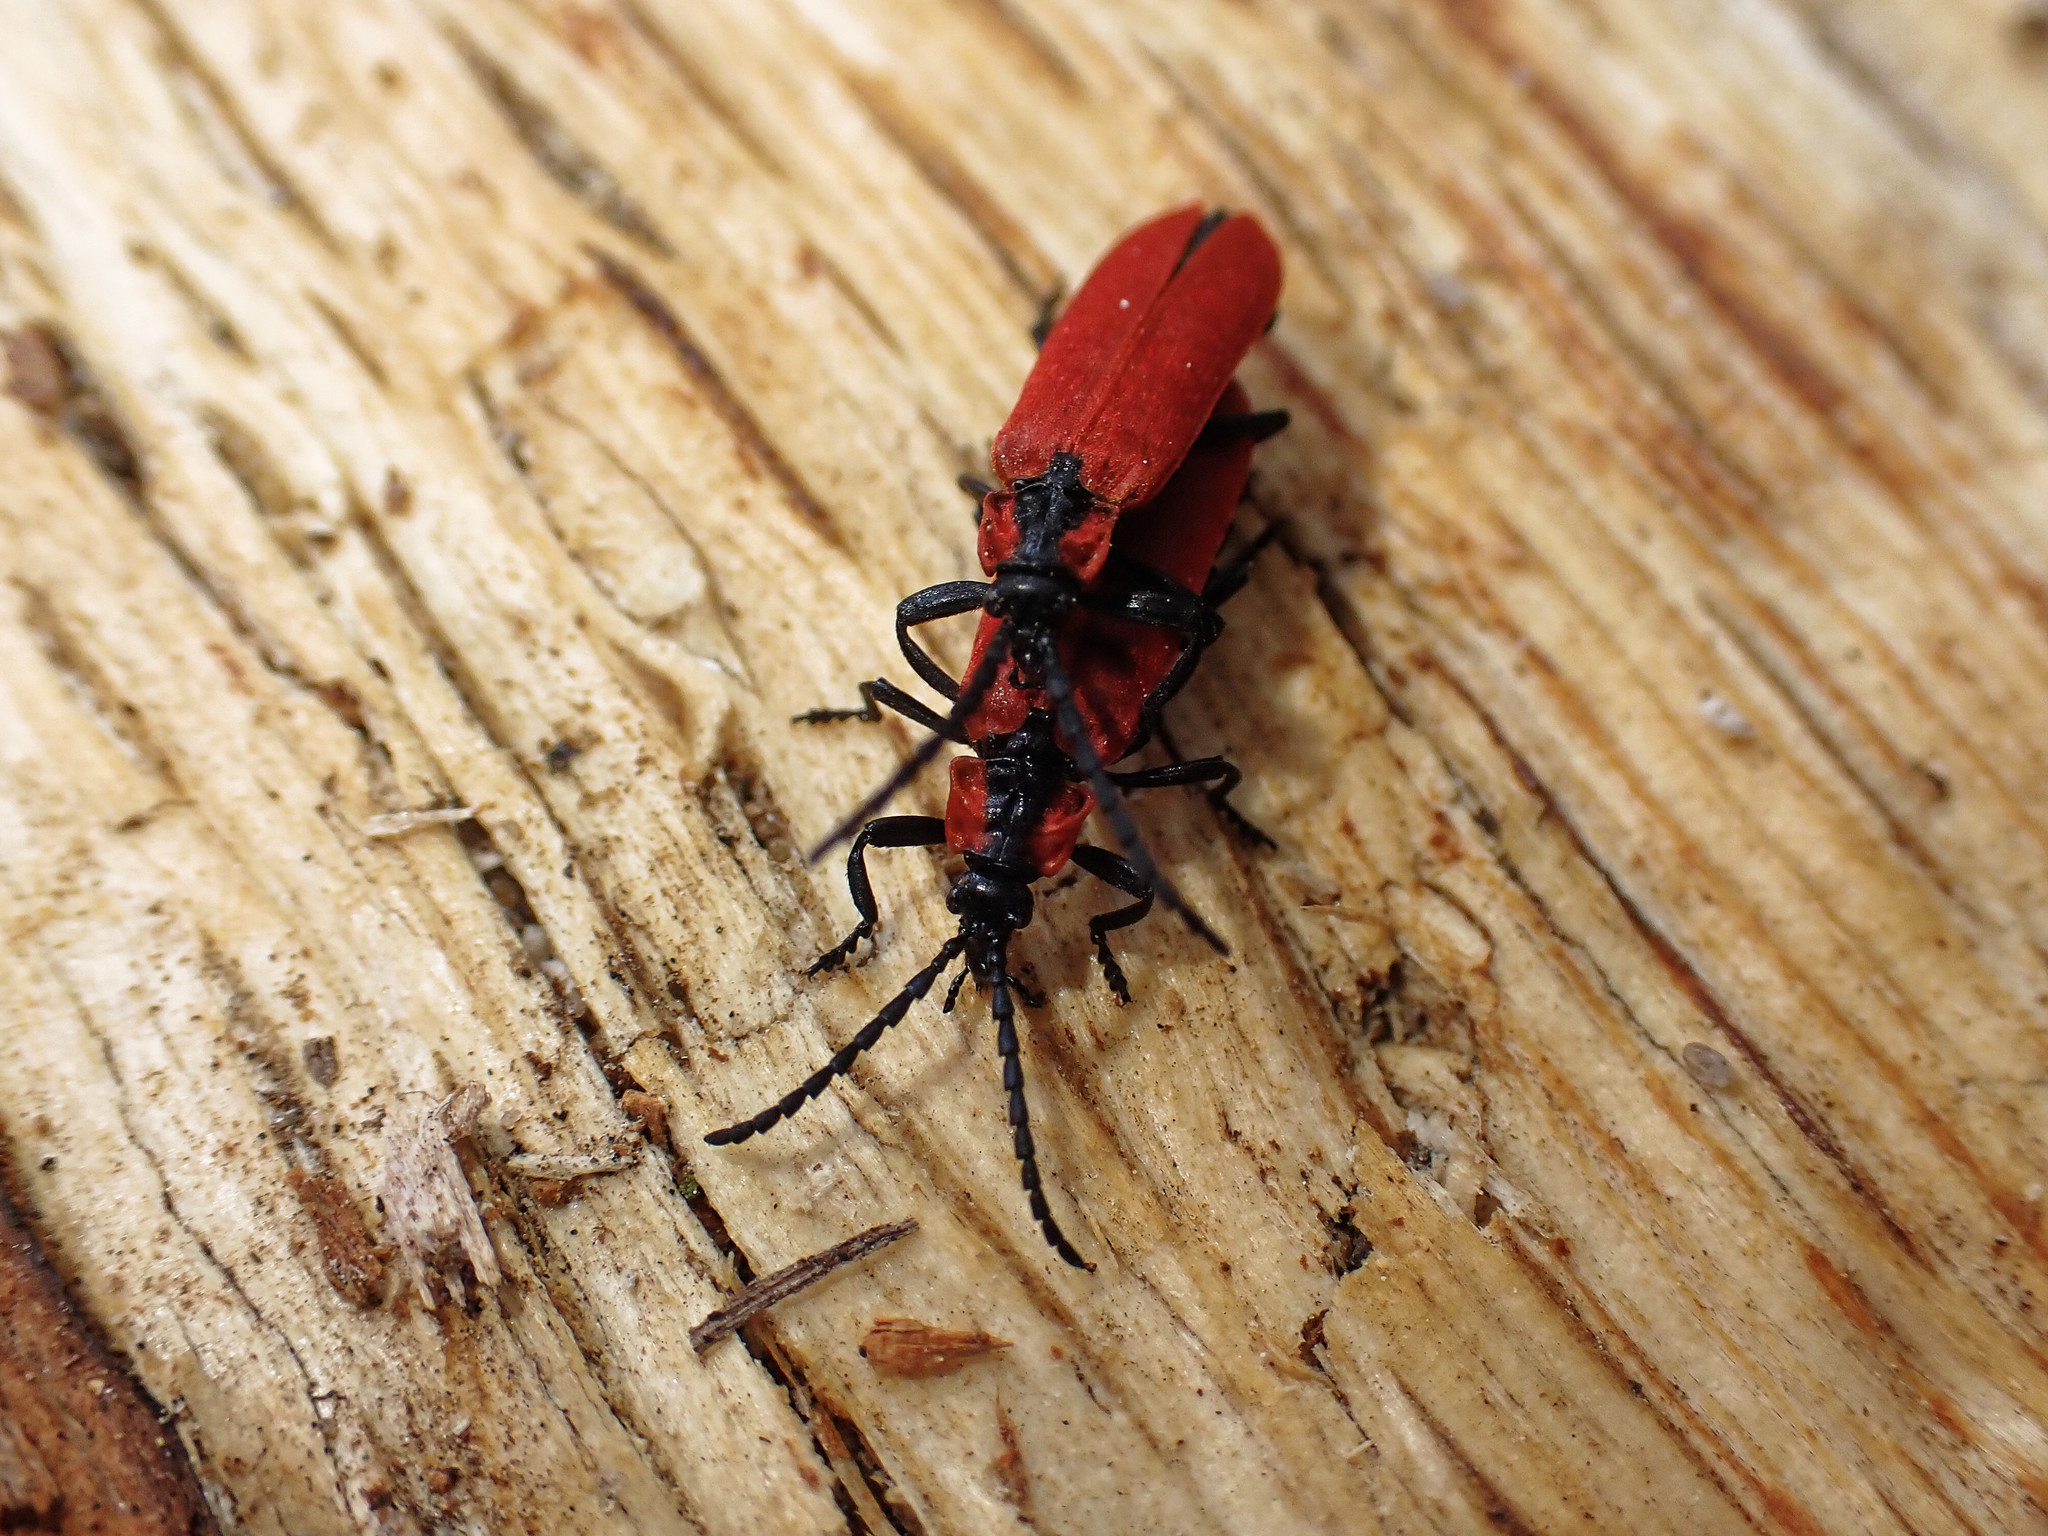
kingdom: Animalia
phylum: Arthropoda
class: Insecta
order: Coleoptera
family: Lycidae
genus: Lygistopterus
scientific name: Lygistopterus sanguineus
